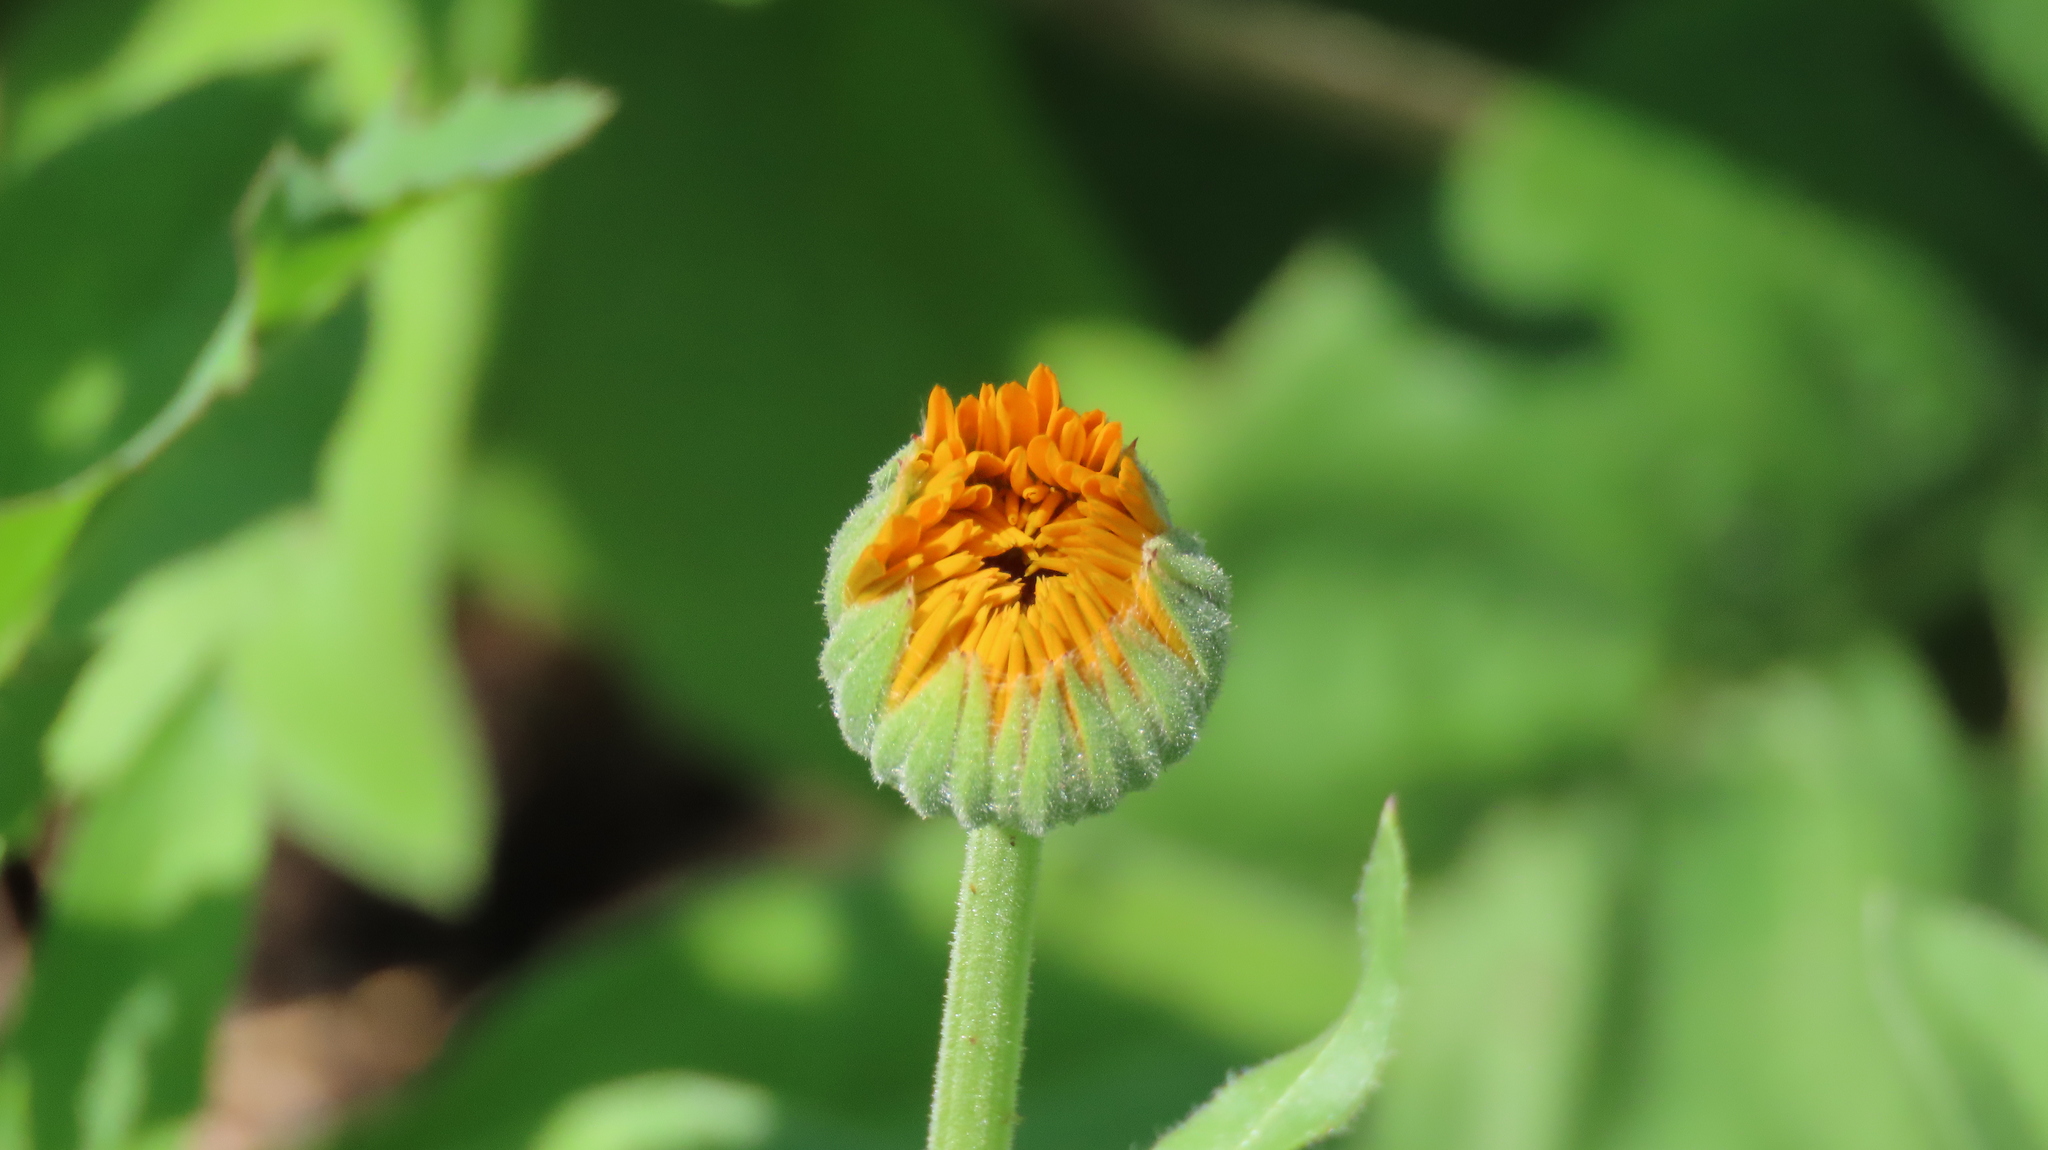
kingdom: Plantae
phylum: Tracheophyta
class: Magnoliopsida
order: Asterales
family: Asteraceae
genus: Calendula
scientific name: Calendula officinalis
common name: Pot marigold
